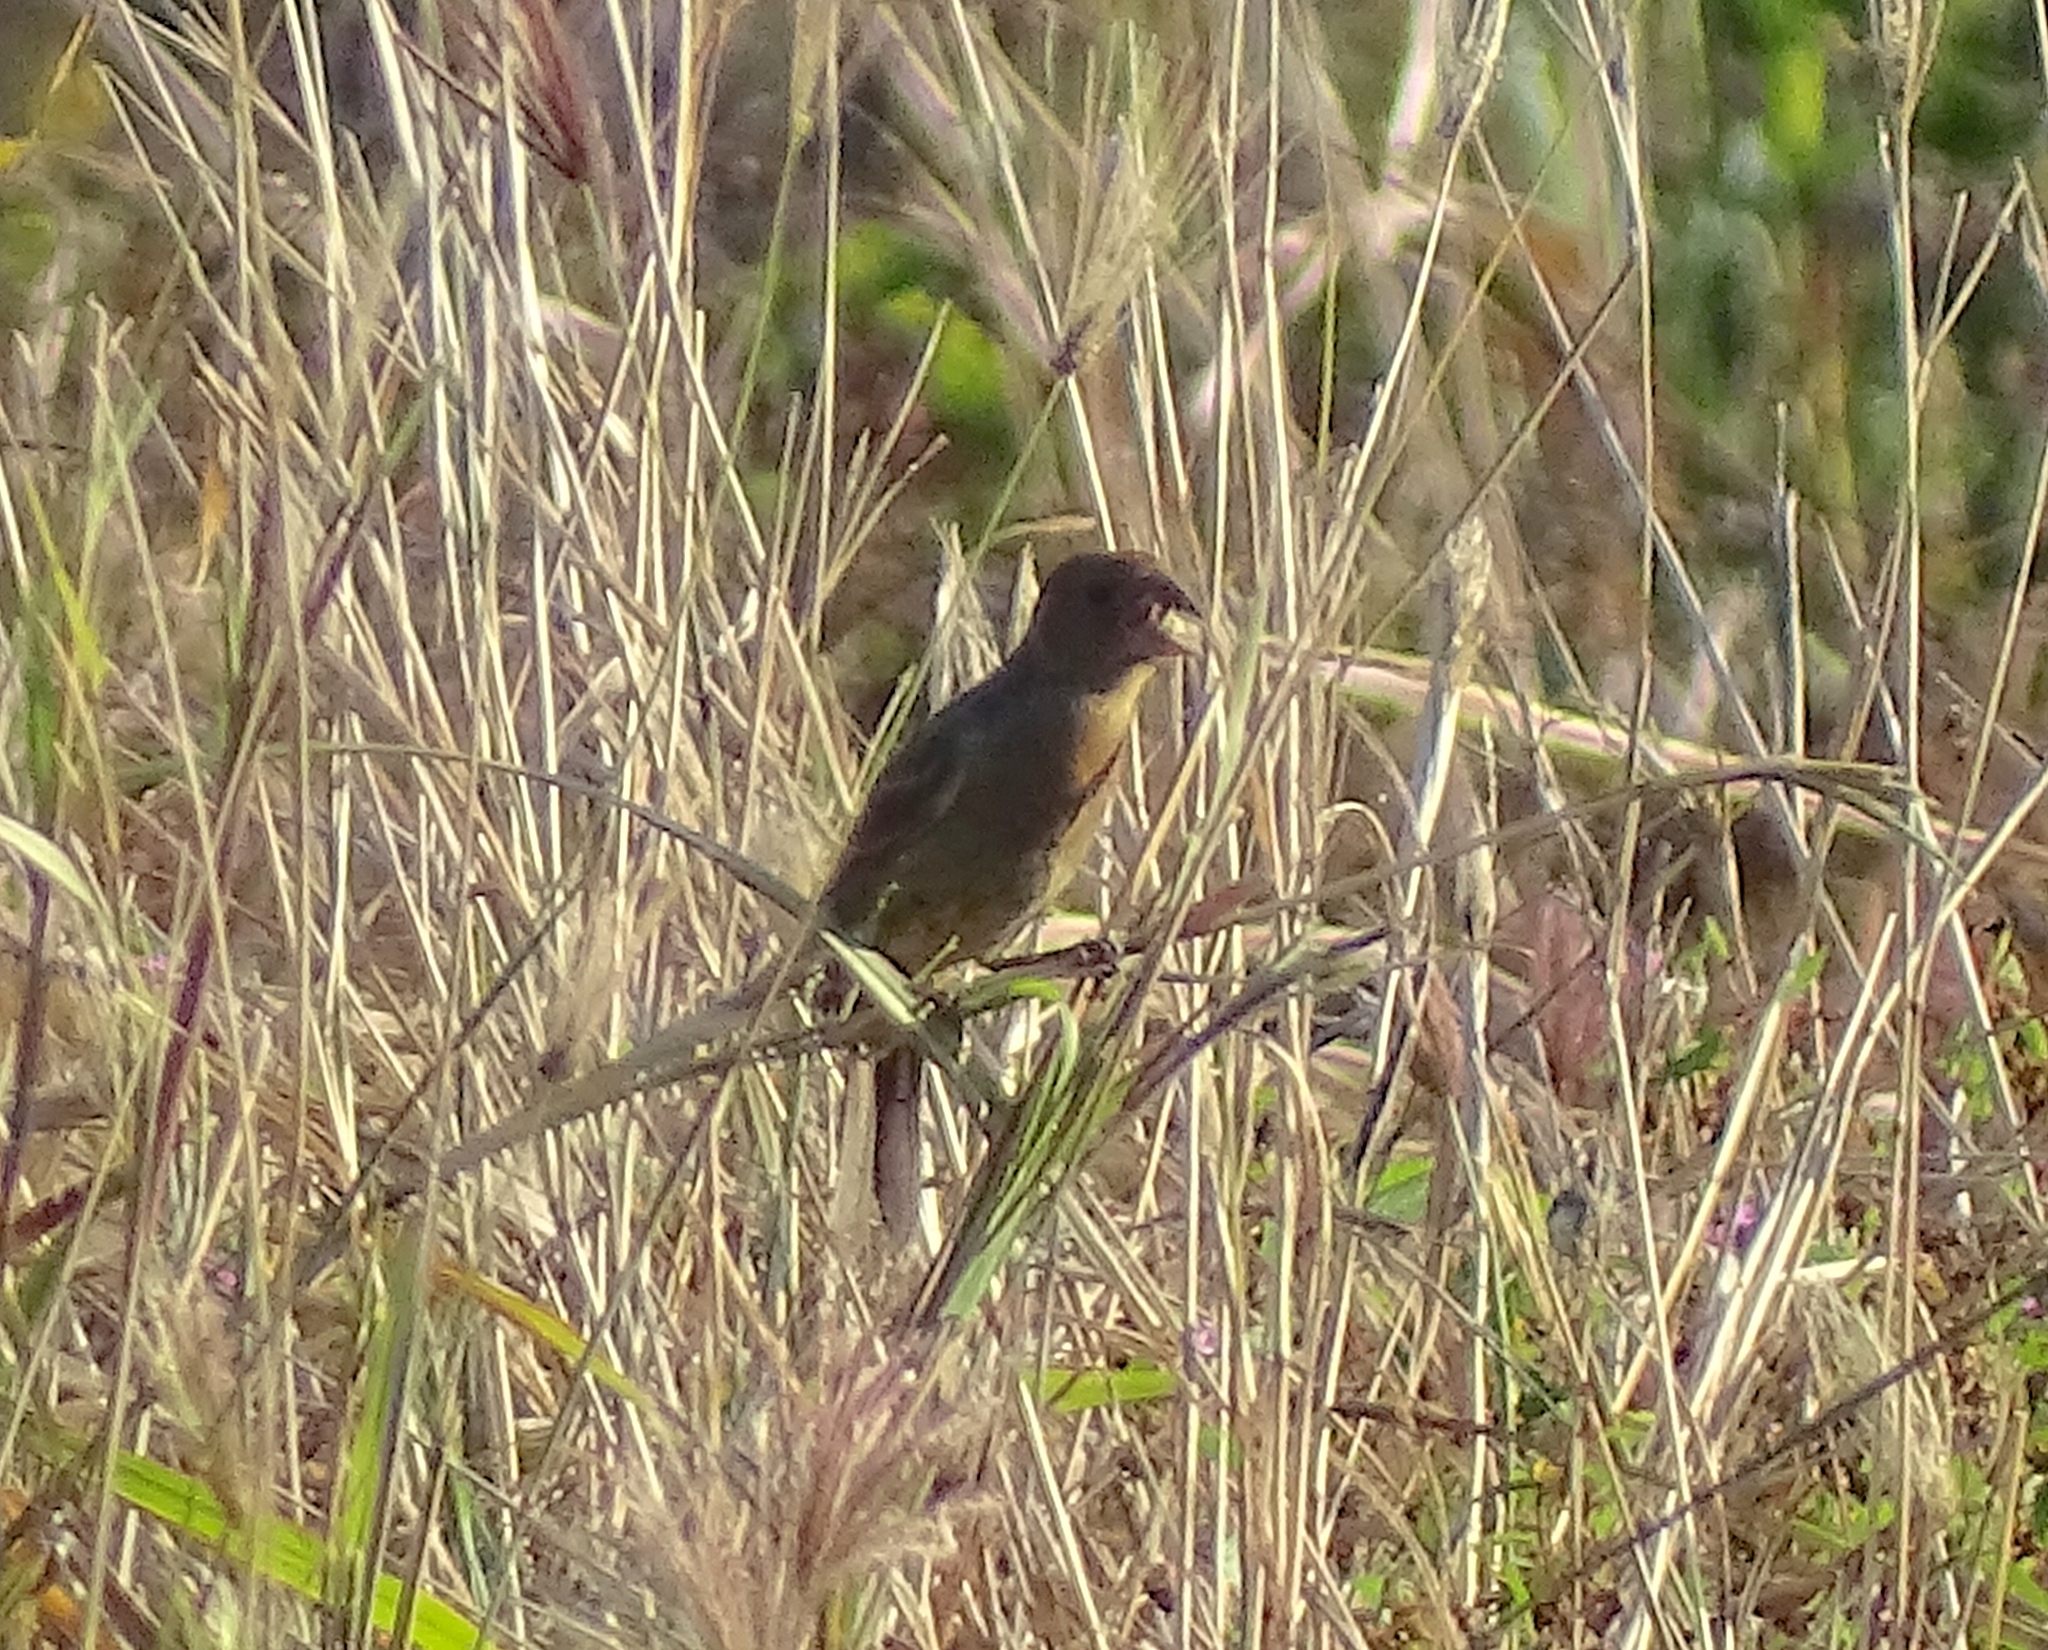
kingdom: Animalia
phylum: Chordata
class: Aves
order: Passeriformes
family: Cardinalidae
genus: Passerina
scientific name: Passerina caerulea
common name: Blue grosbeak
